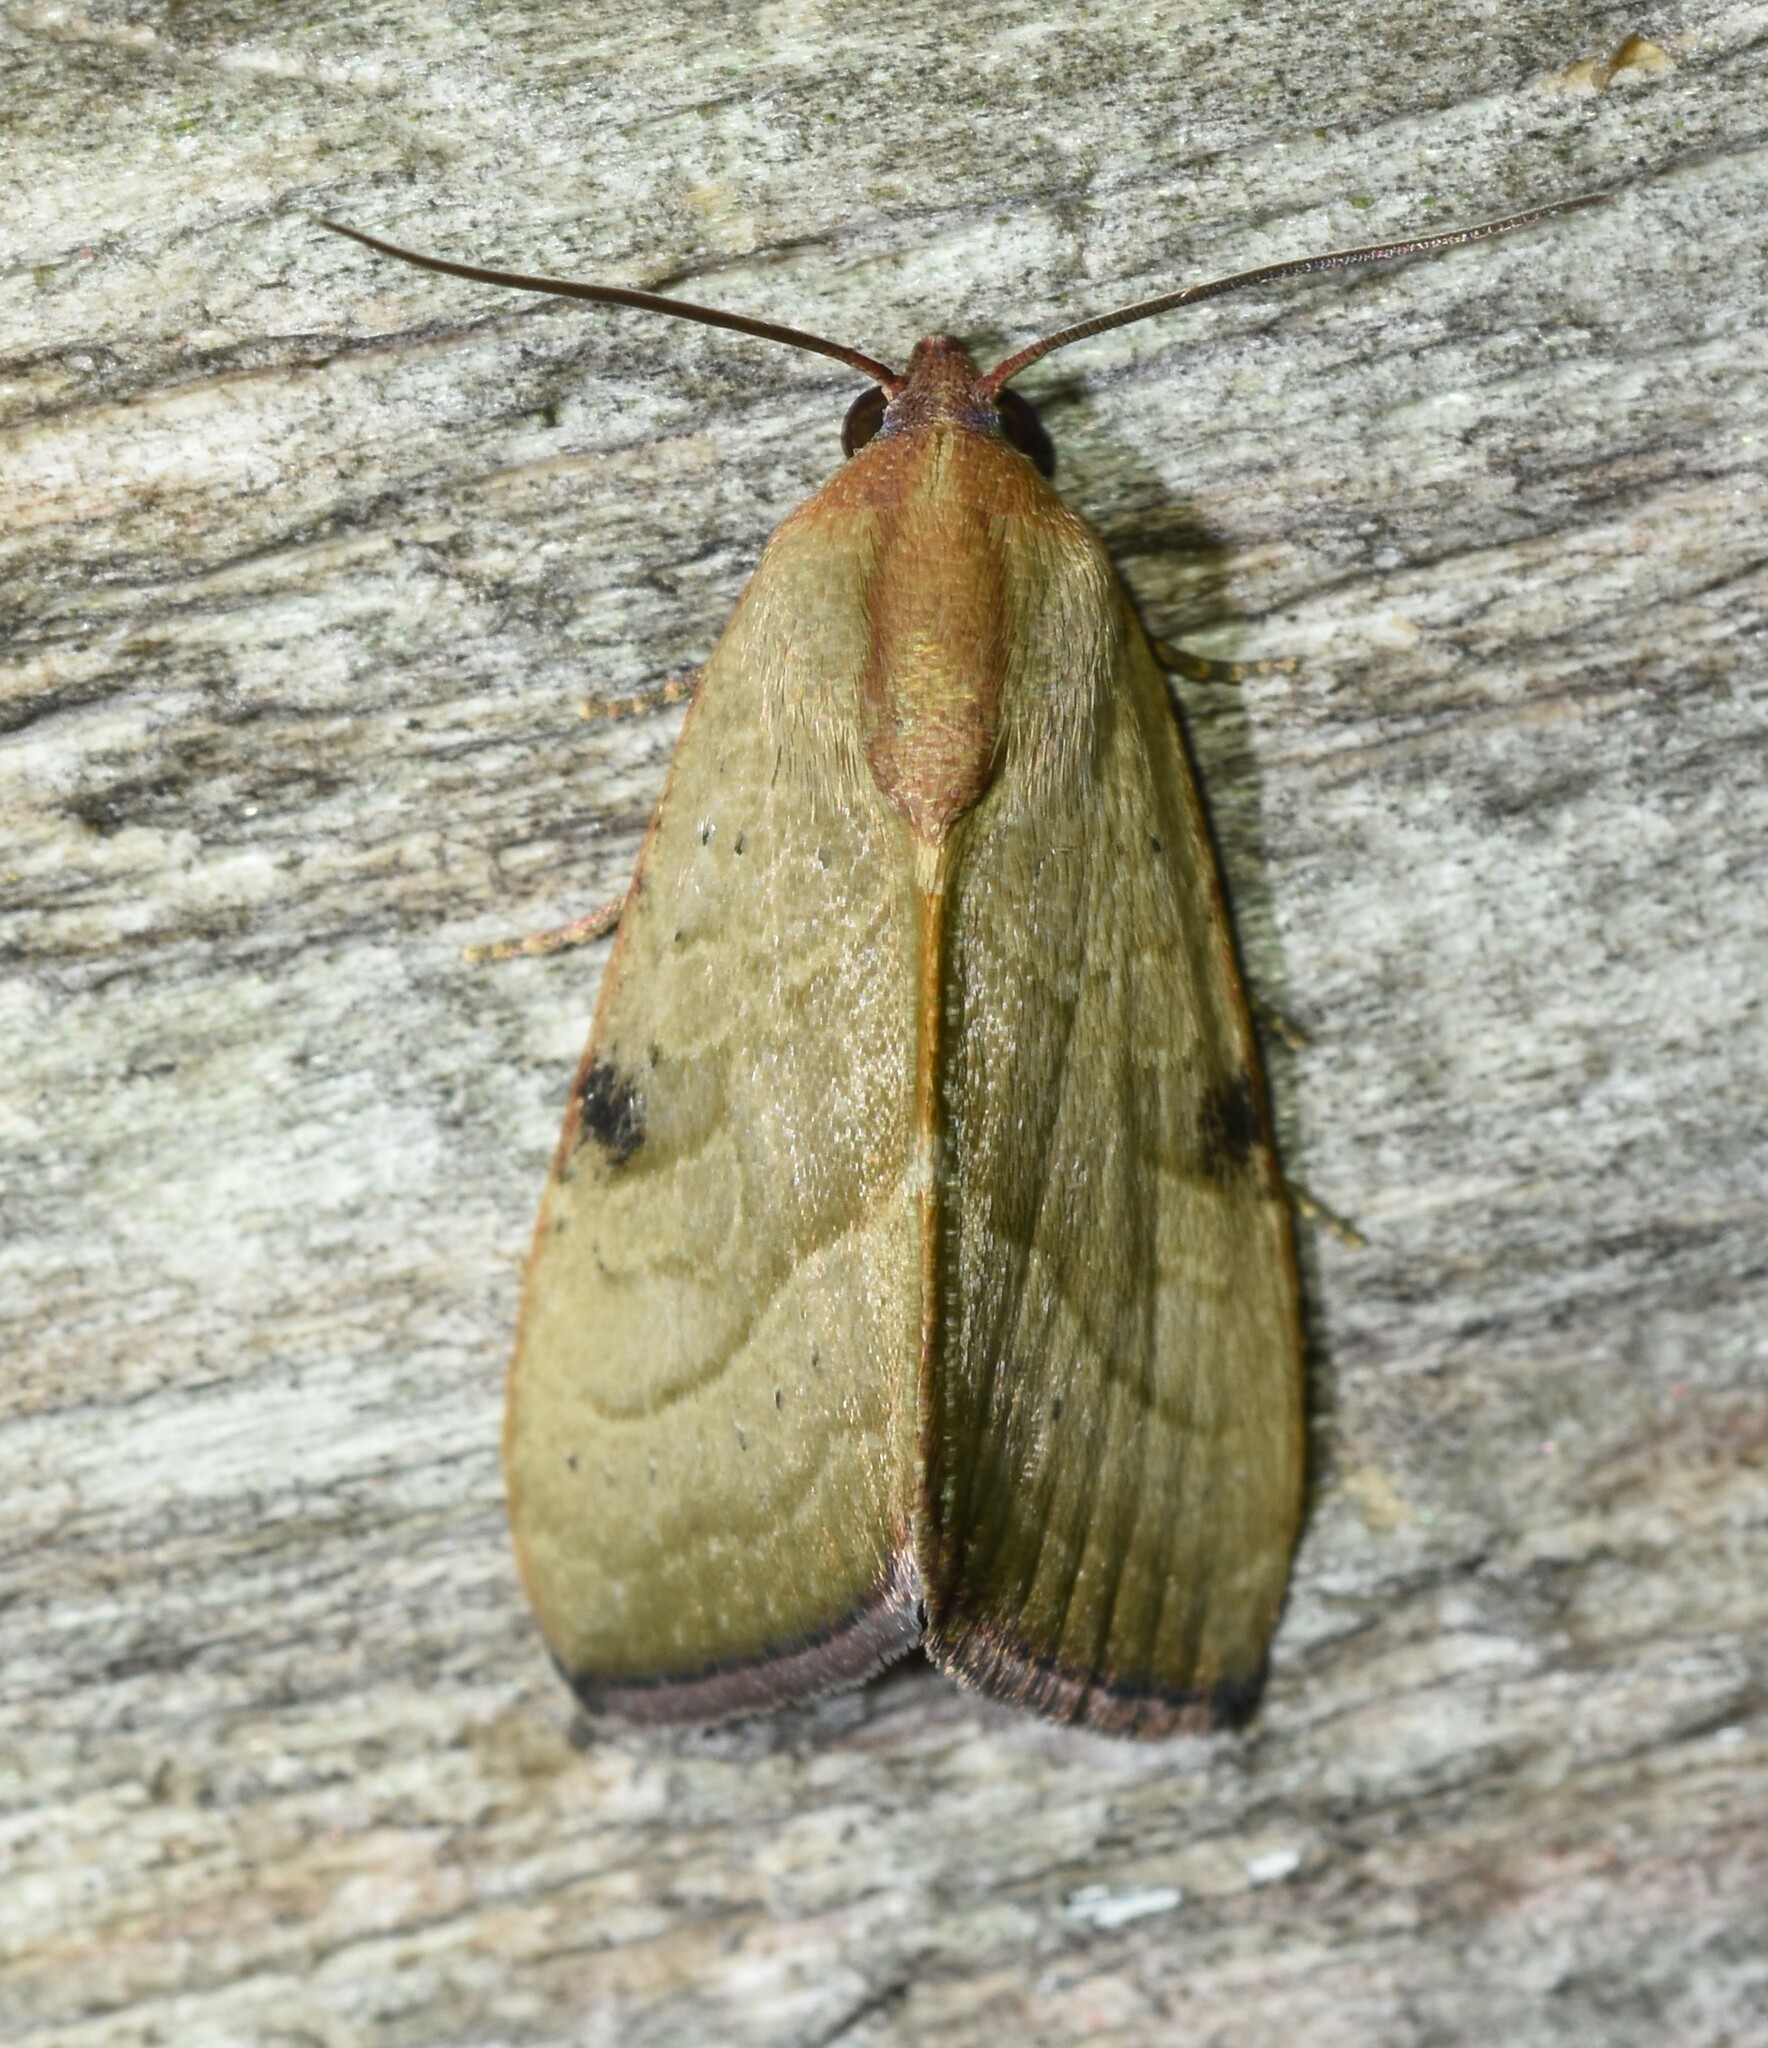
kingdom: Animalia
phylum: Arthropoda
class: Insecta
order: Lepidoptera
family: Noctuidae
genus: Galgula
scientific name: Galgula partita
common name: Wedgeling
